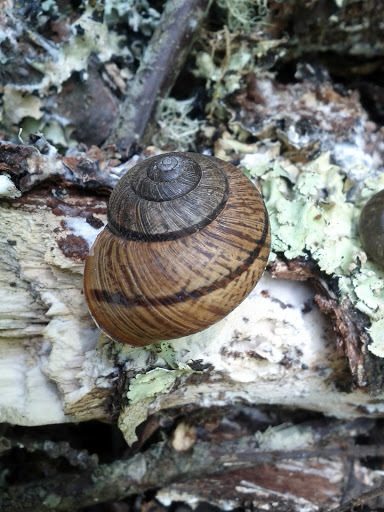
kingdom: Animalia
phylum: Mollusca
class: Gastropoda
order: Stylommatophora
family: Xanthonychidae
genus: Helminthoglypta
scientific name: Helminthoglypta nickliniana
